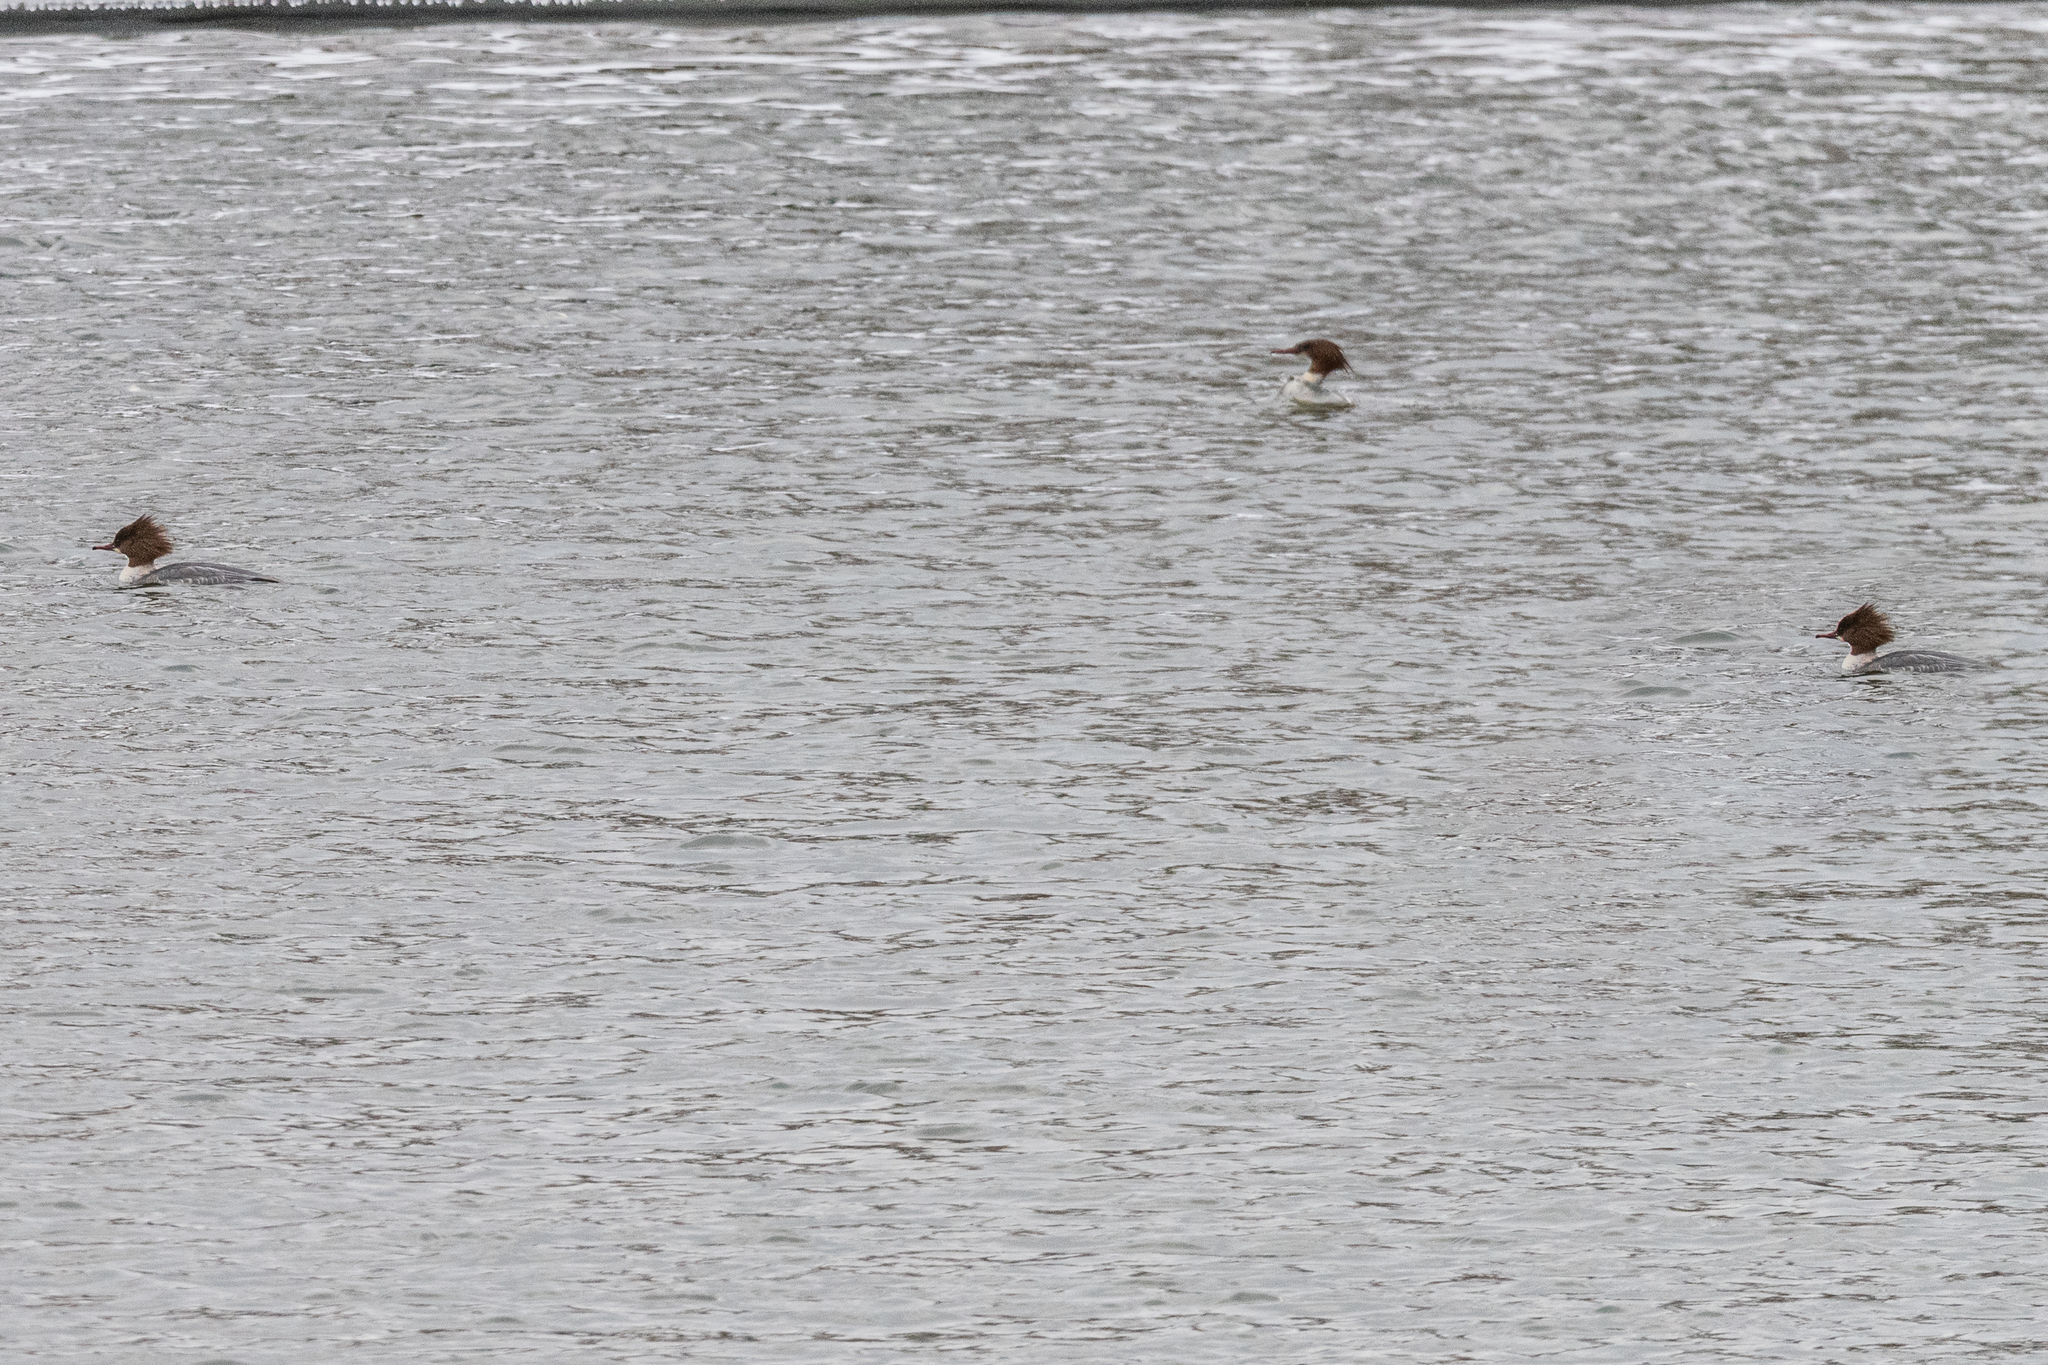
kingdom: Animalia
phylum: Chordata
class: Aves
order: Anseriformes
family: Anatidae
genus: Mergus
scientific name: Mergus merganser
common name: Common merganser
